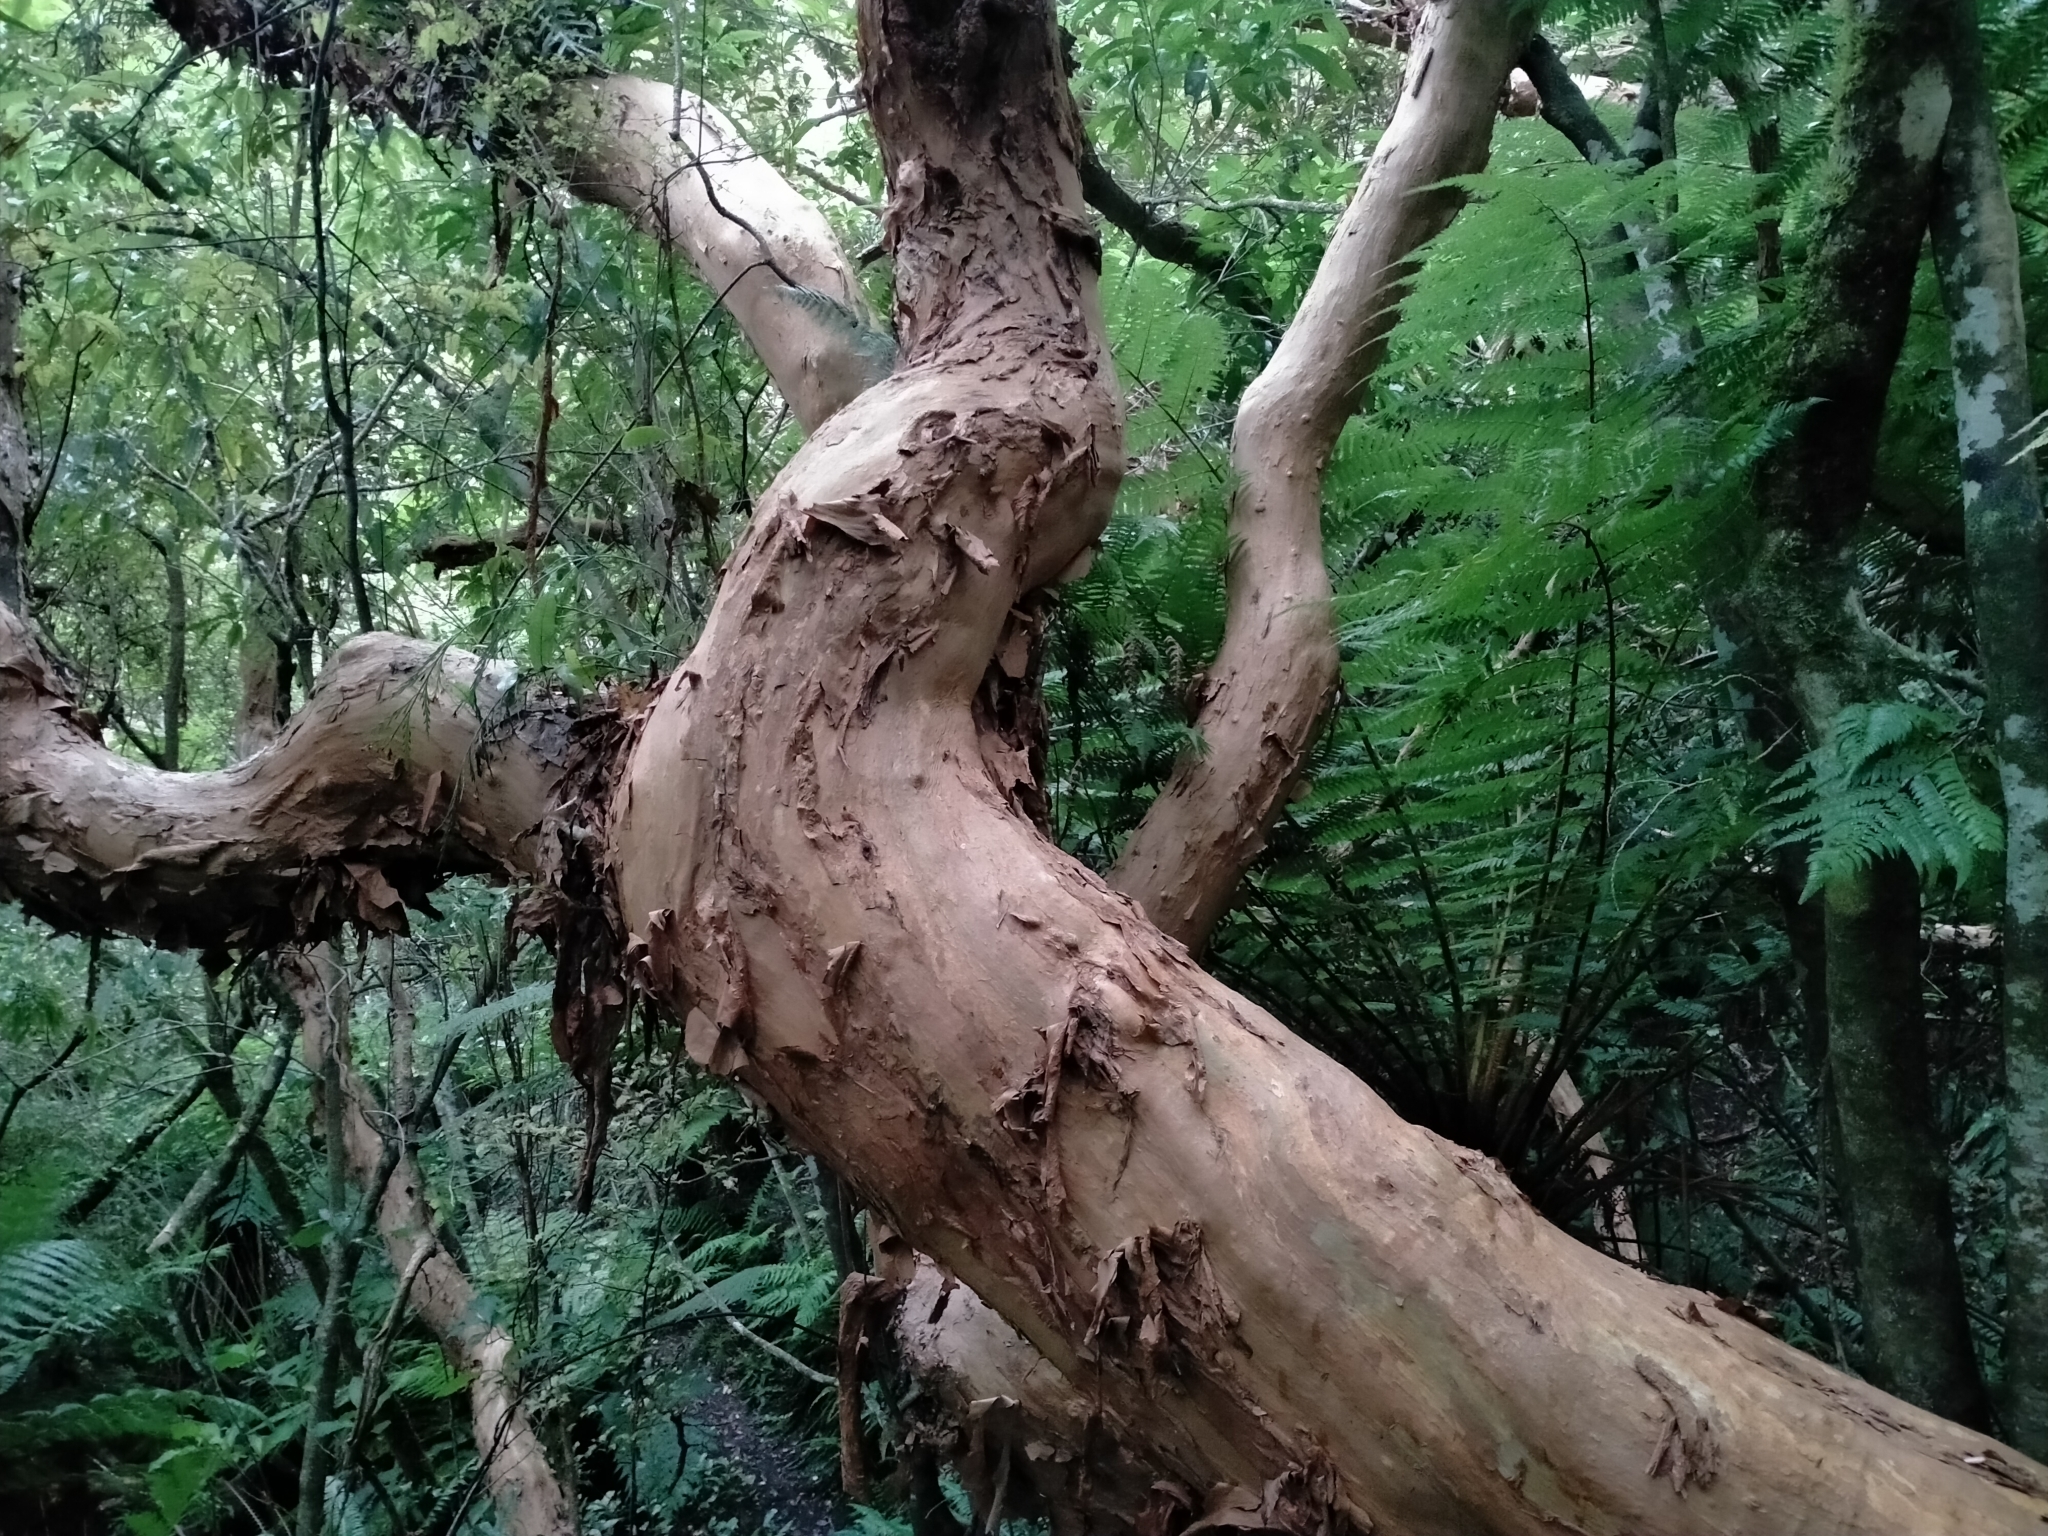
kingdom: Plantae
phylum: Tracheophyta
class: Magnoliopsida
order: Myrtales
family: Onagraceae
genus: Fuchsia
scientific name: Fuchsia excorticata
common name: Tree fuchsia
